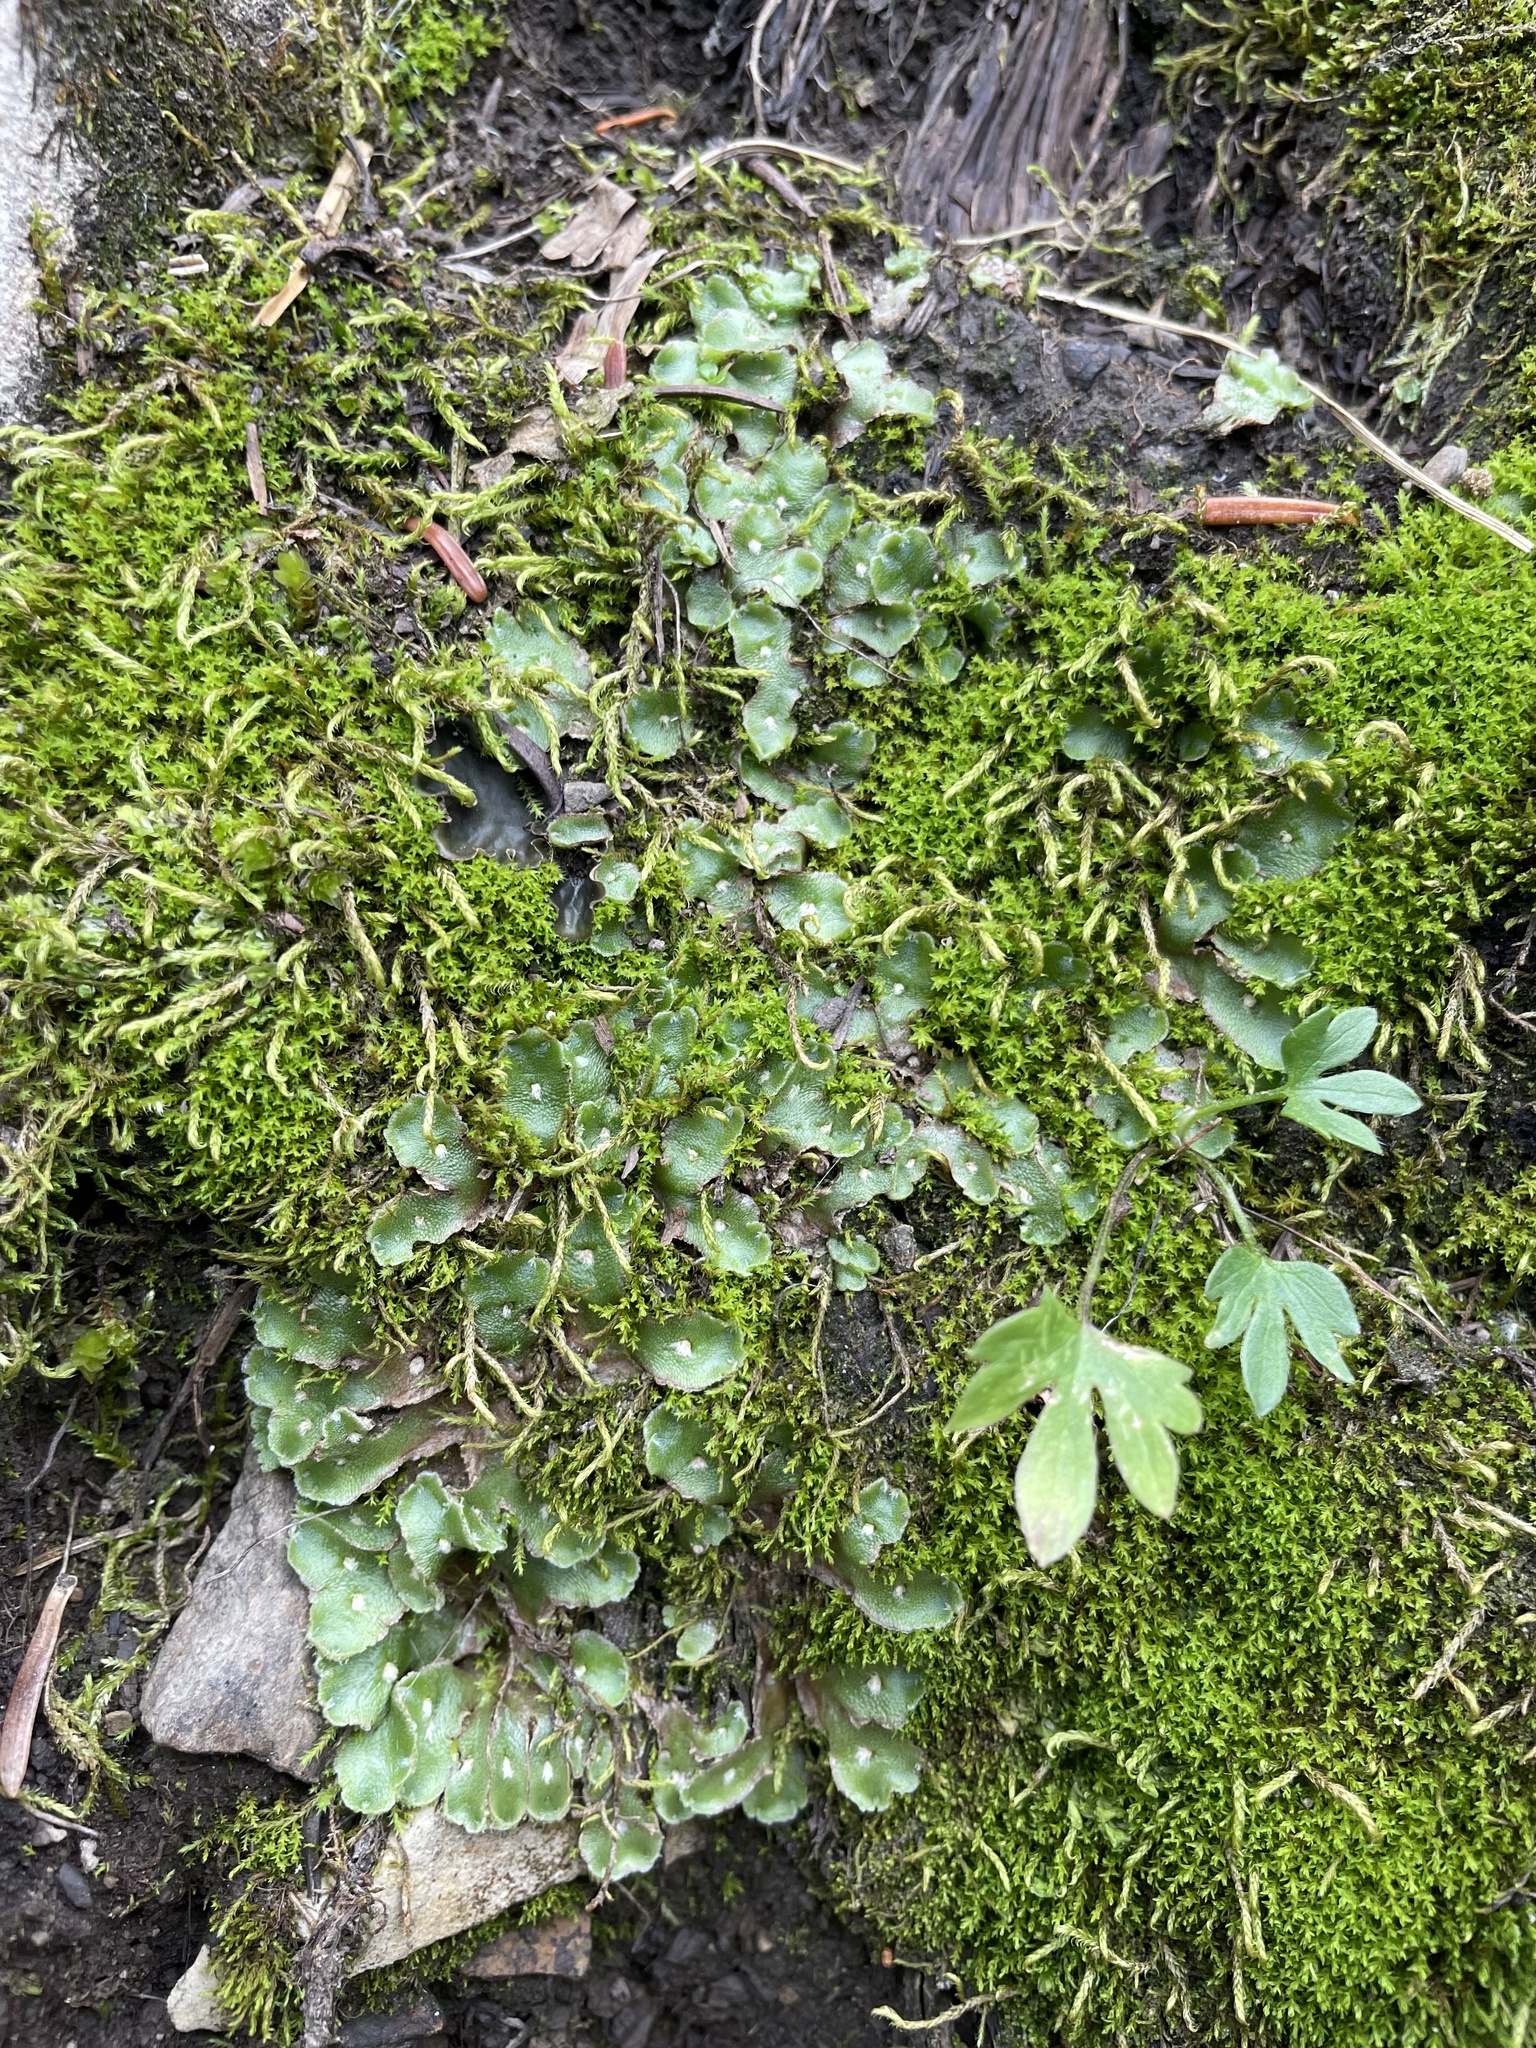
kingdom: Plantae
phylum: Marchantiophyta
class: Marchantiopsida
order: Marchantiales
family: Cleveaceae
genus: Clevea
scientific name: Clevea hyalina
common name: Hyaline liverwort
